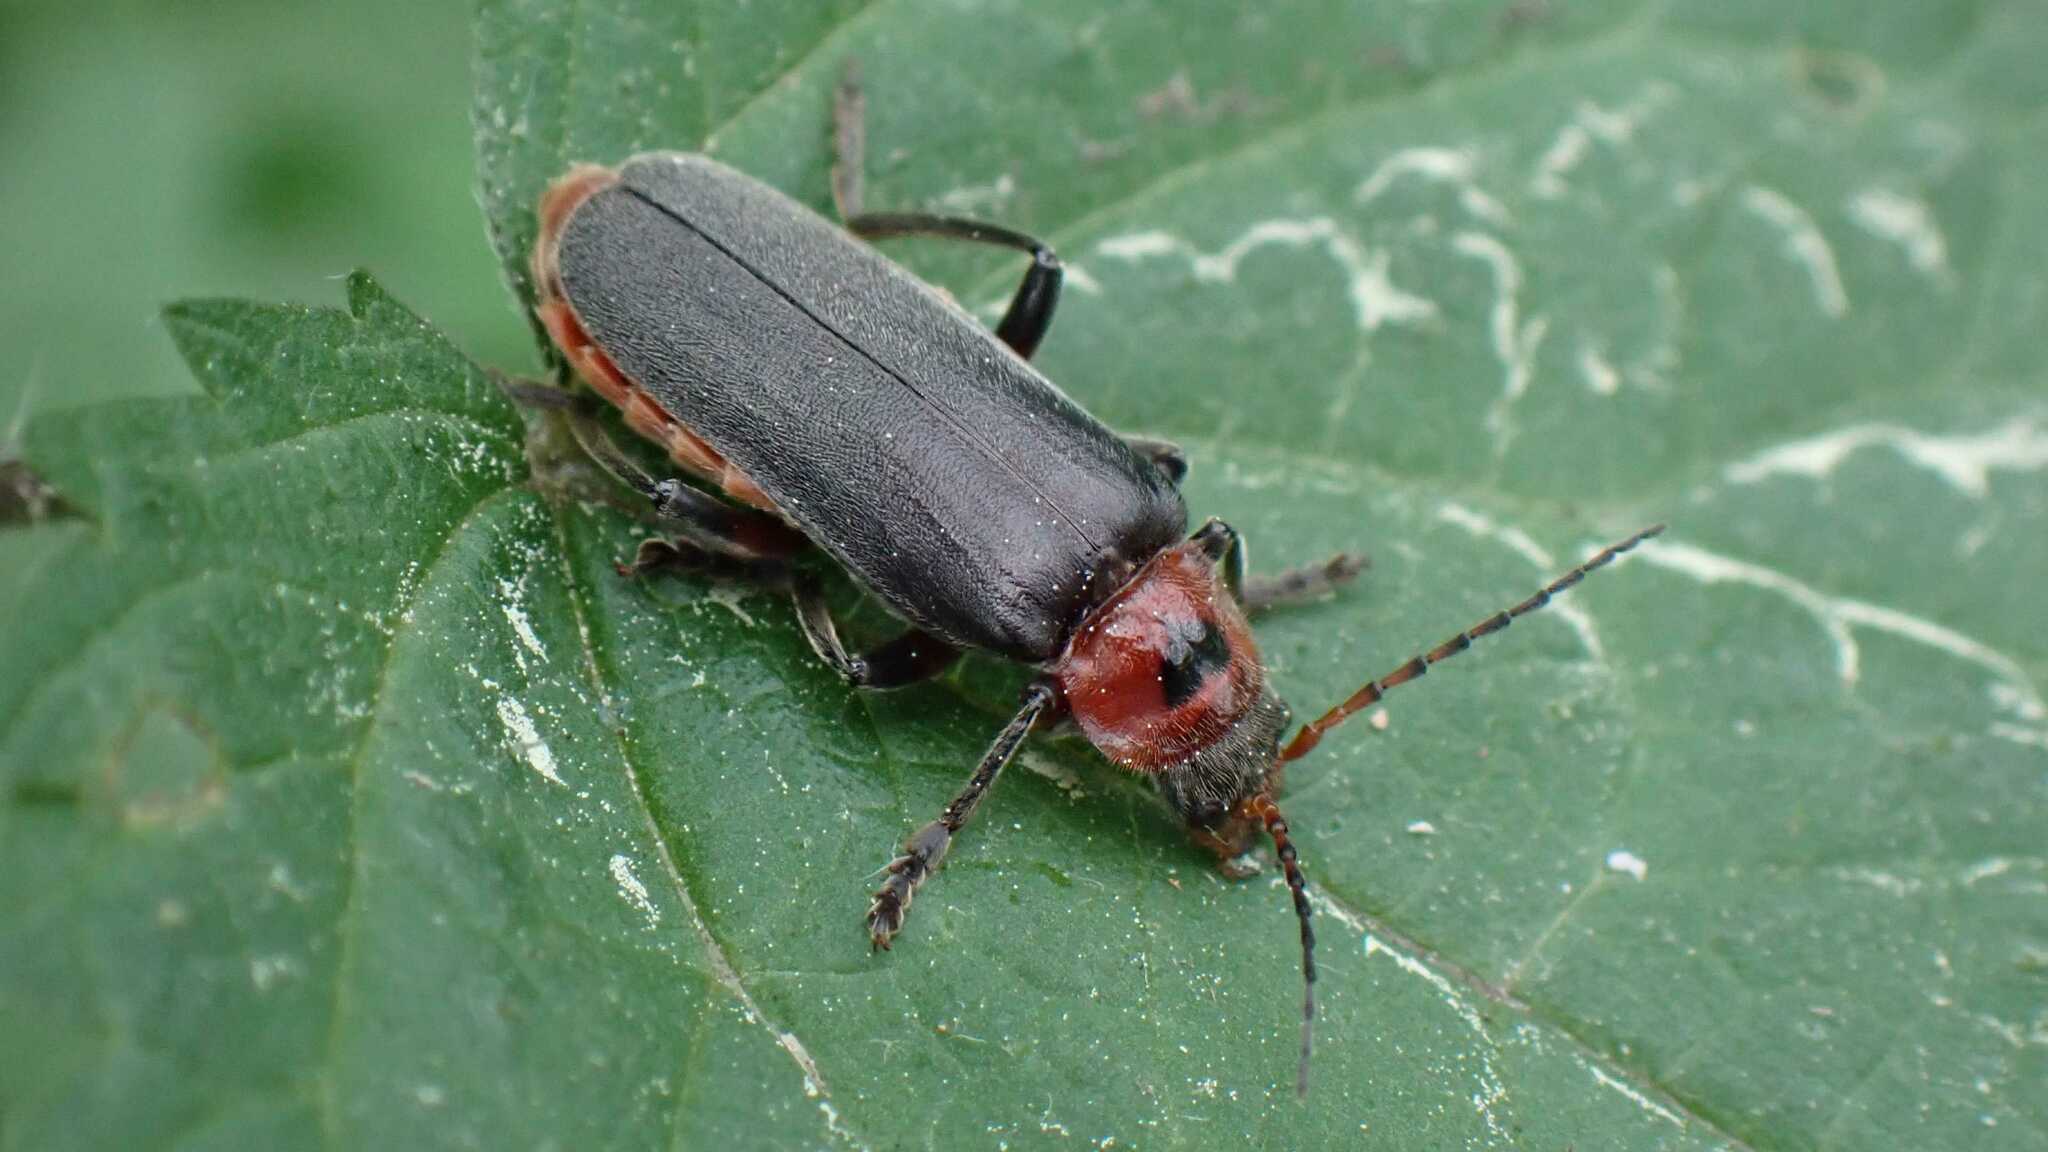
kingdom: Animalia
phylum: Arthropoda
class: Insecta
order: Coleoptera
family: Cantharidae
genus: Cantharis
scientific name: Cantharis rustica
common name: Soldier beetle
